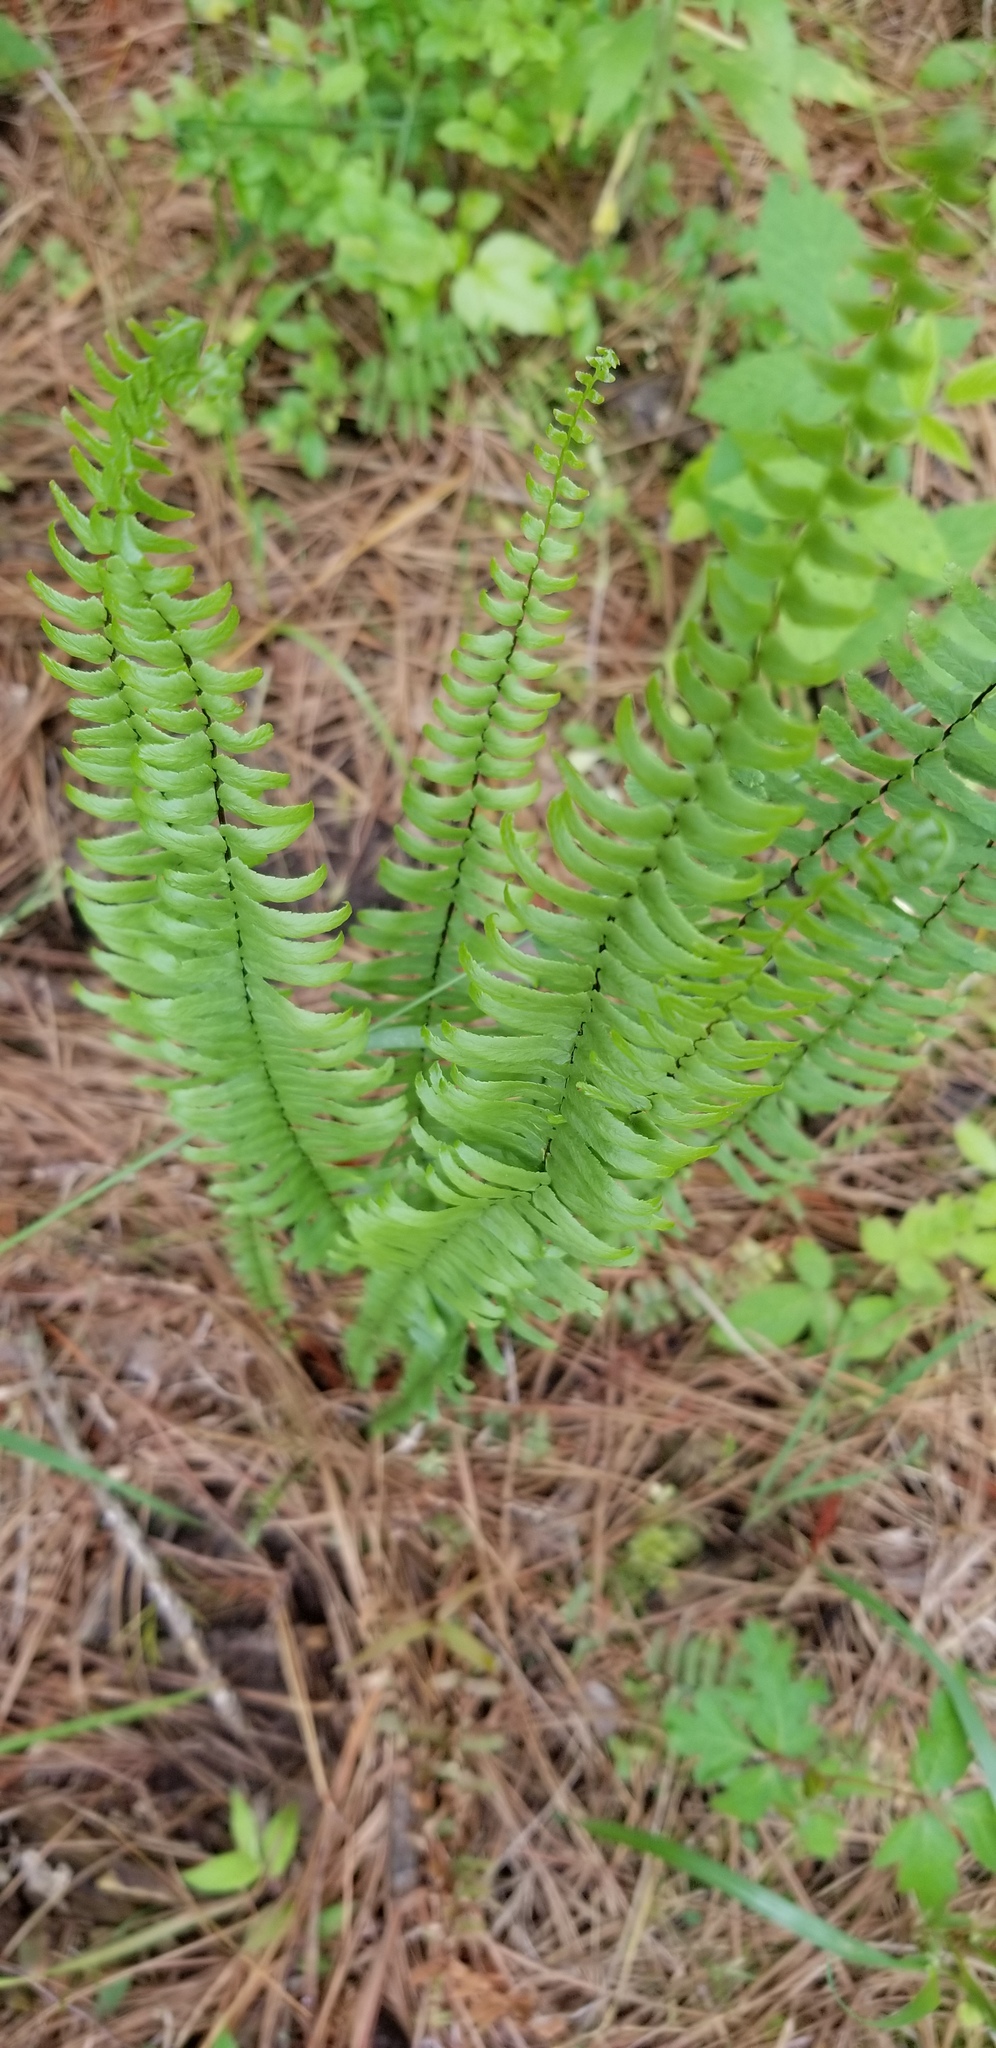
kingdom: Plantae
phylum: Tracheophyta
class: Polypodiopsida
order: Polypodiales
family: Aspleniaceae
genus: Asplenium
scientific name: Asplenium platyneuron
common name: Ebony spleenwort
